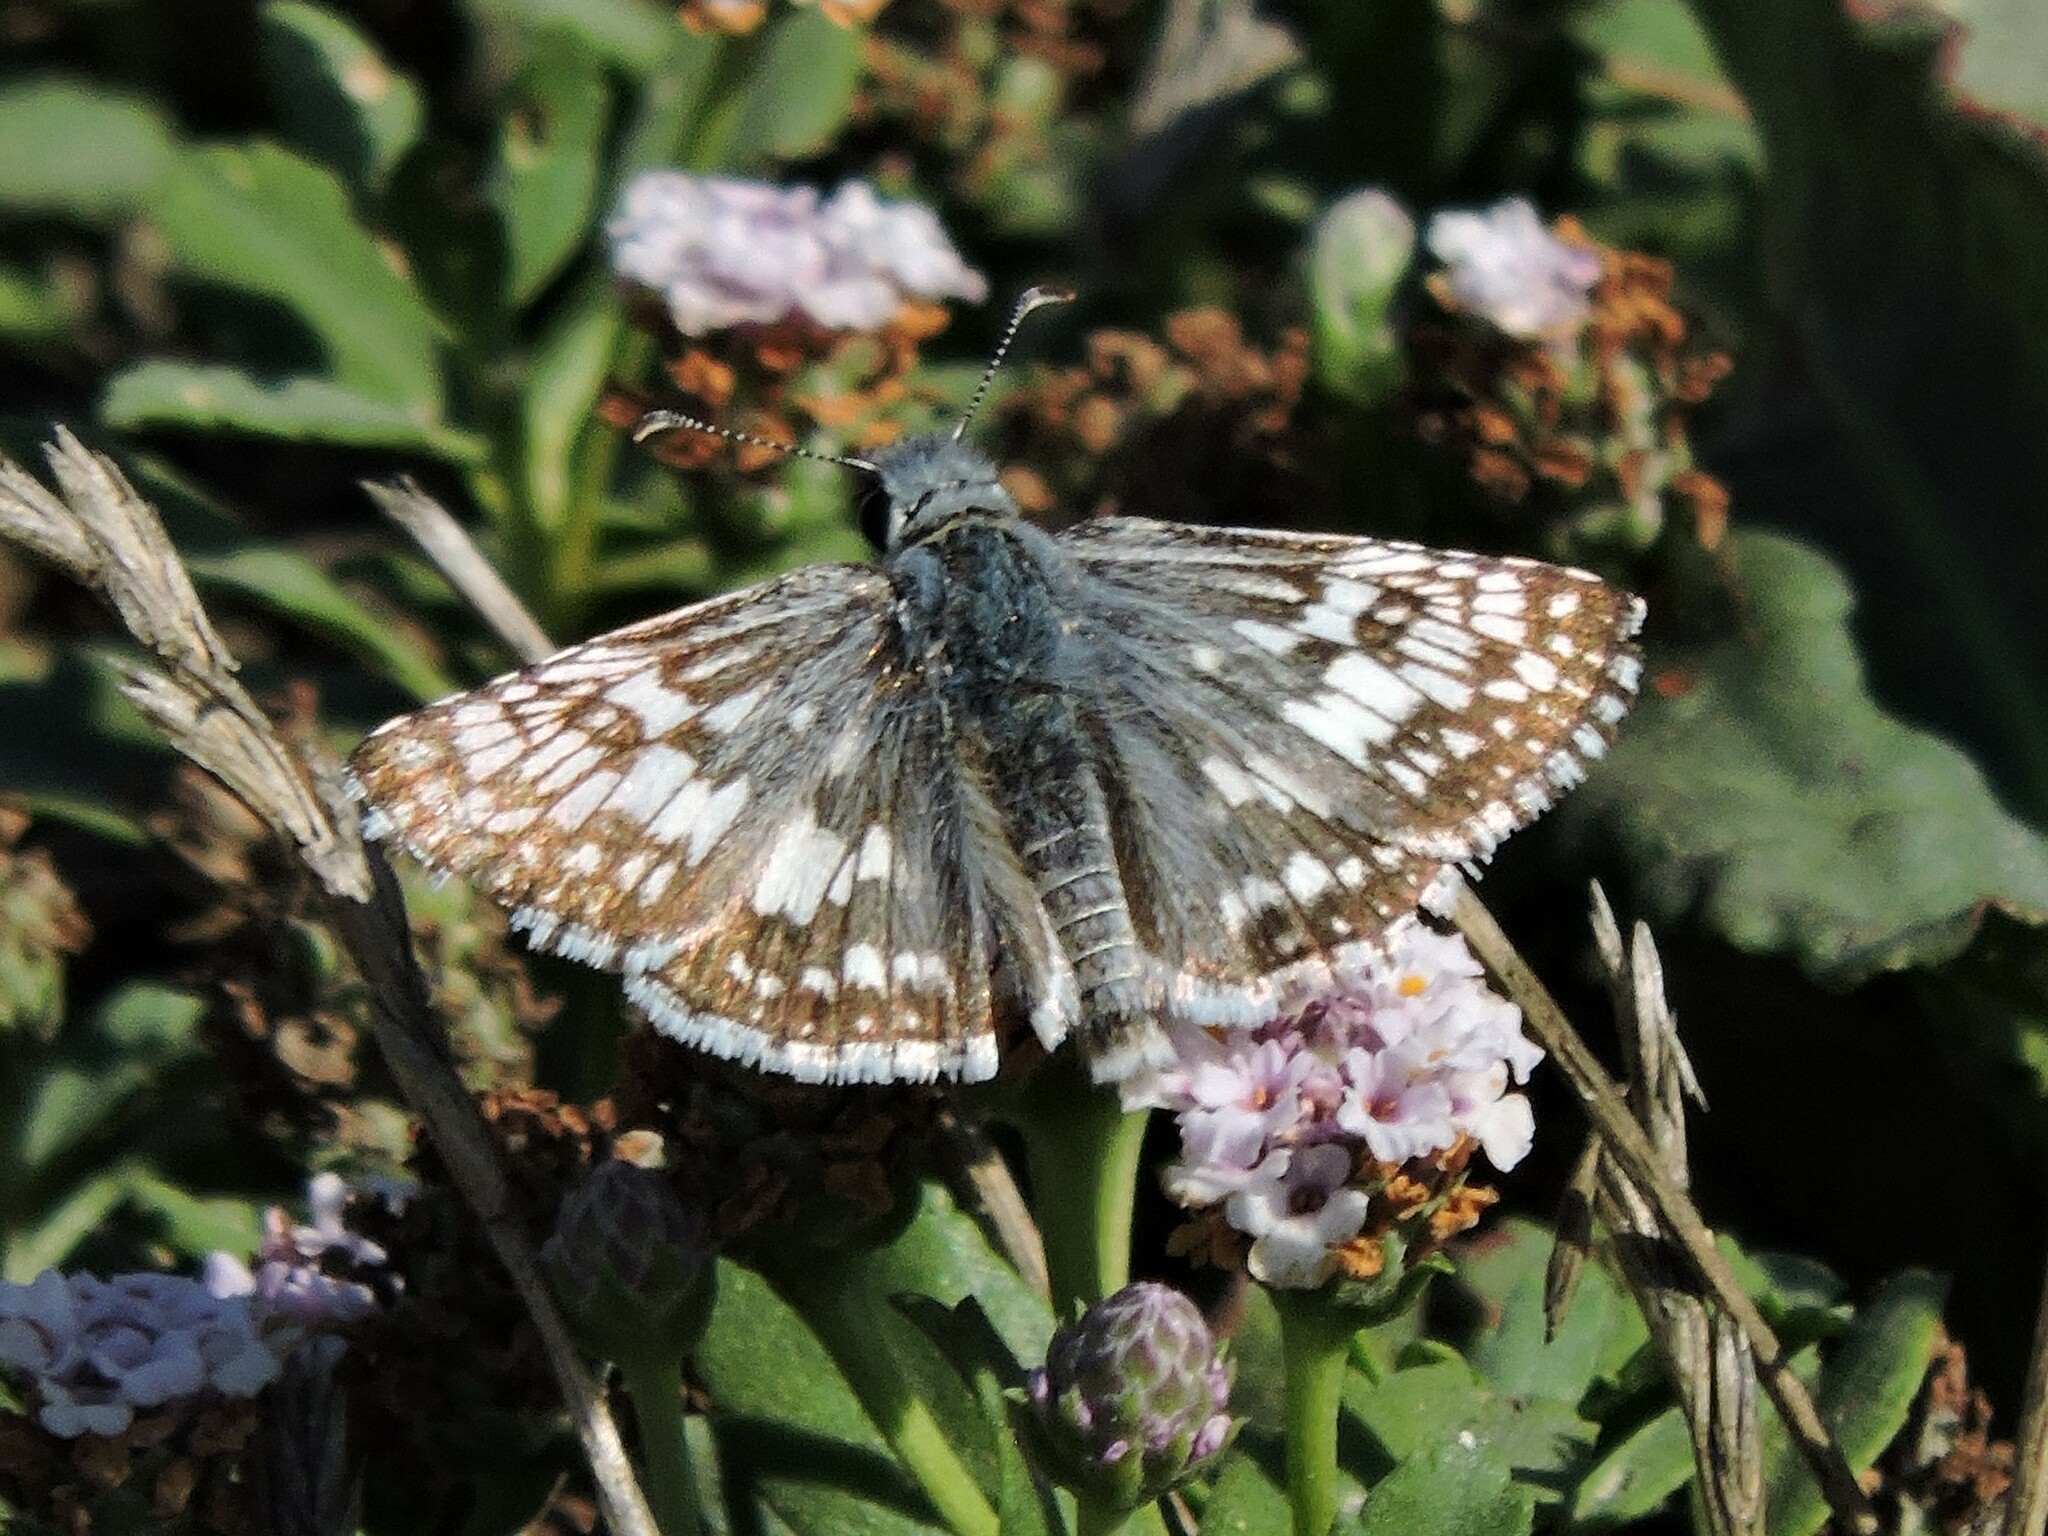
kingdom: Animalia
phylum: Arthropoda
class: Insecta
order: Lepidoptera
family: Hesperiidae
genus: Burnsius
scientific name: Burnsius communis
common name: Common checkered-skipper
